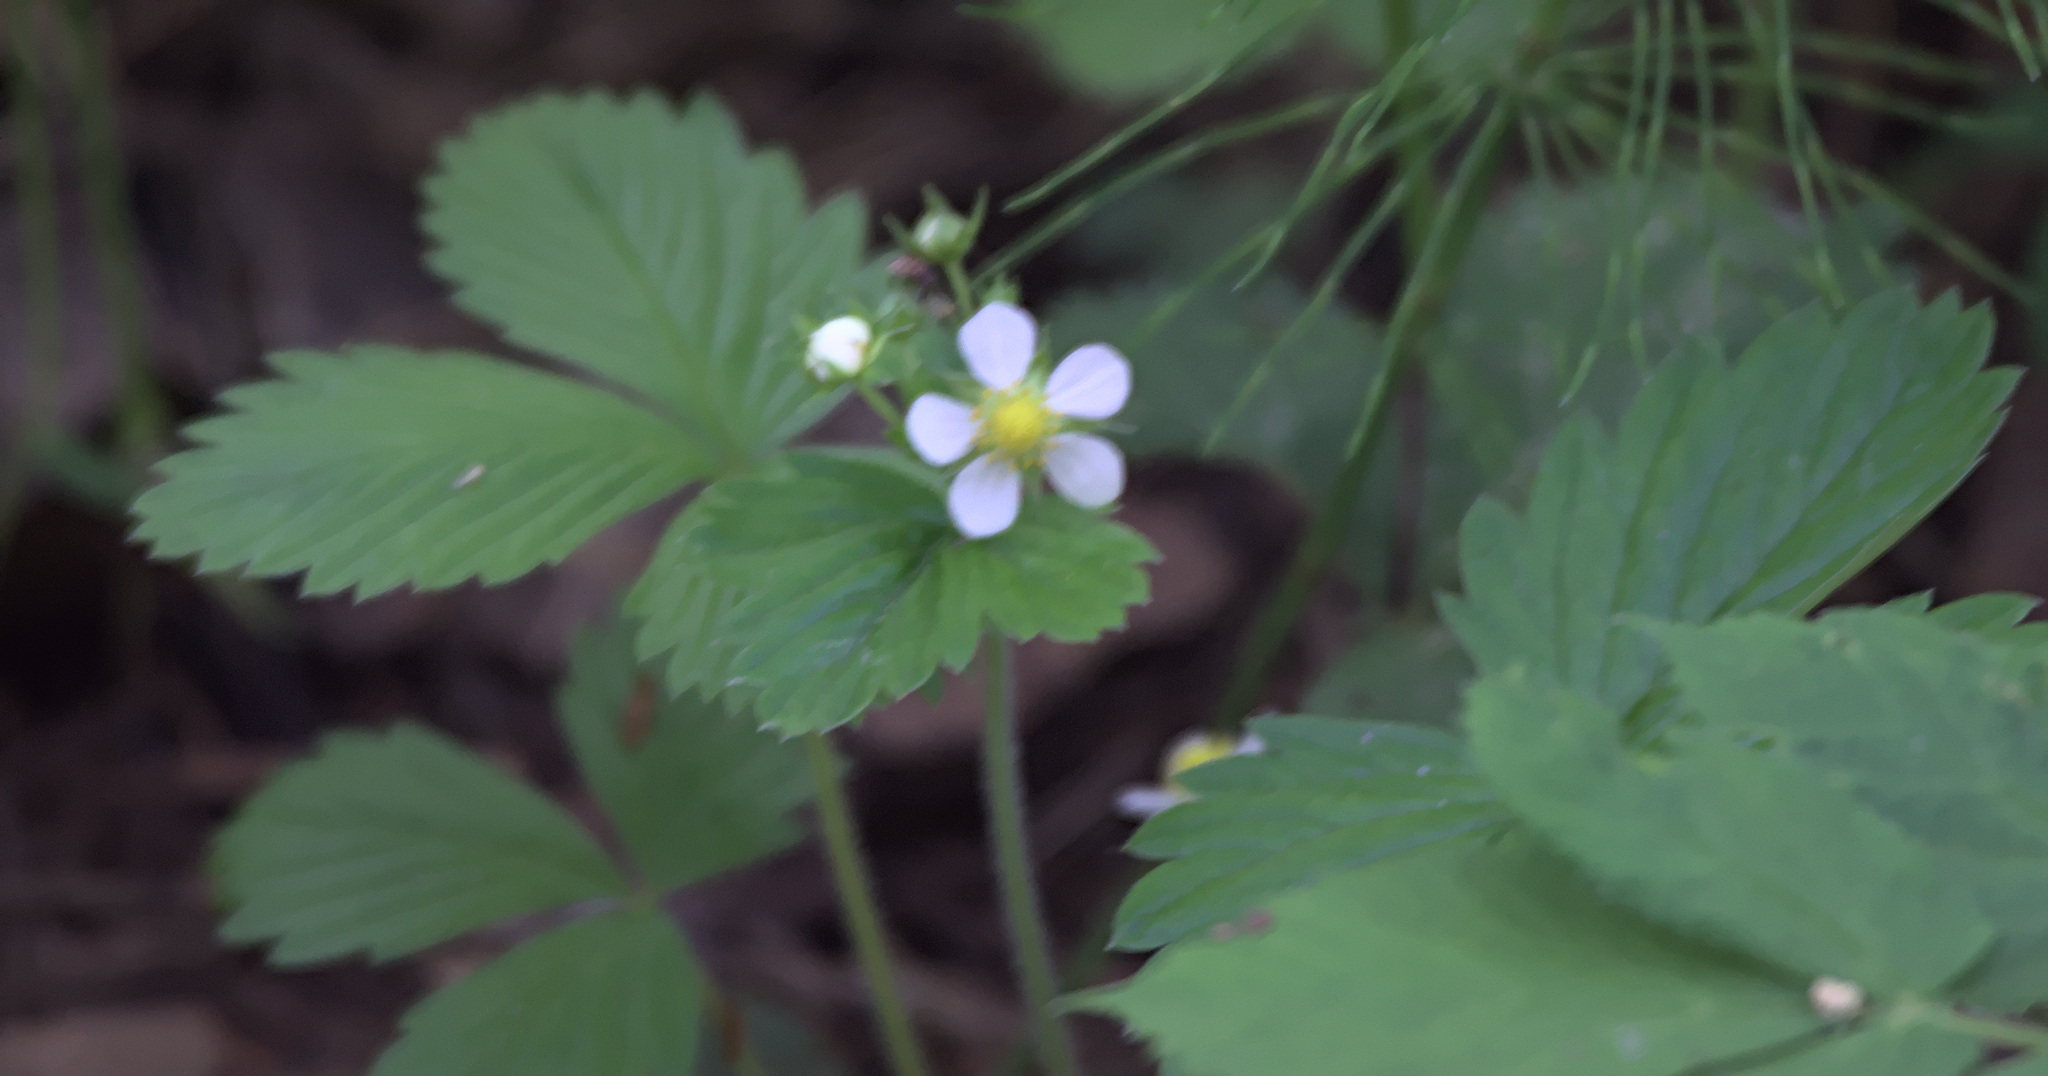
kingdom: Plantae
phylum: Tracheophyta
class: Magnoliopsida
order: Rosales
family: Rosaceae
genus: Fragaria
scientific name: Fragaria vesca
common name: Wild strawberry
